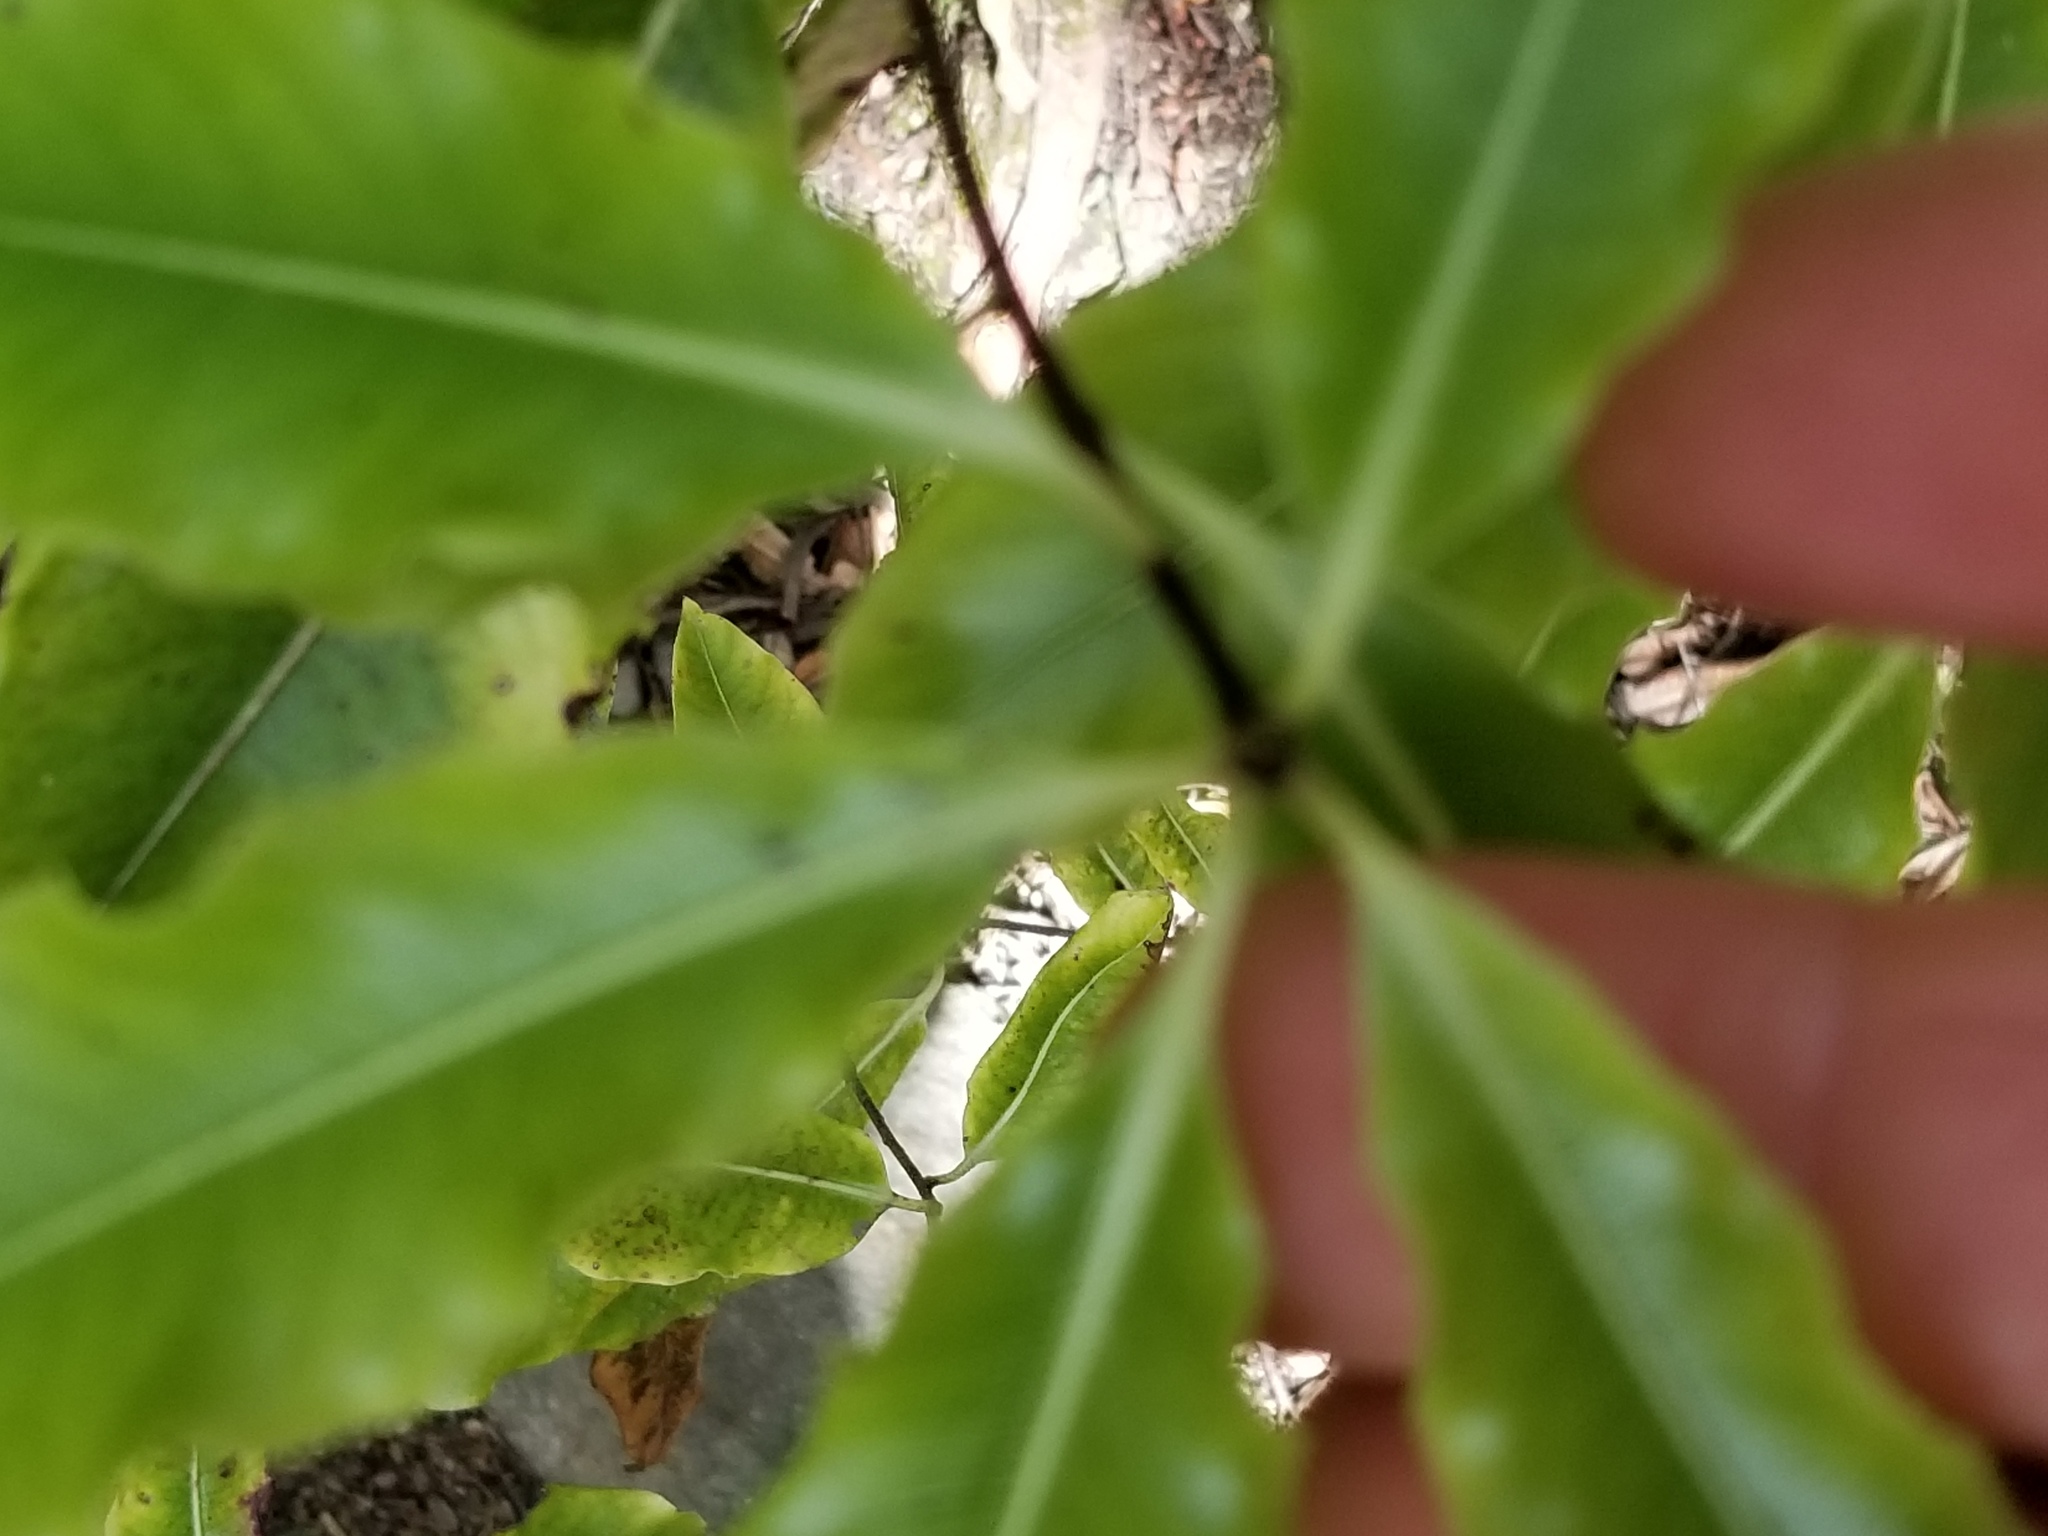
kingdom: Plantae
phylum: Tracheophyta
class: Magnoliopsida
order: Apiales
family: Pittosporaceae
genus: Pittosporum
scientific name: Pittosporum eugenioides
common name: Lemonwood
